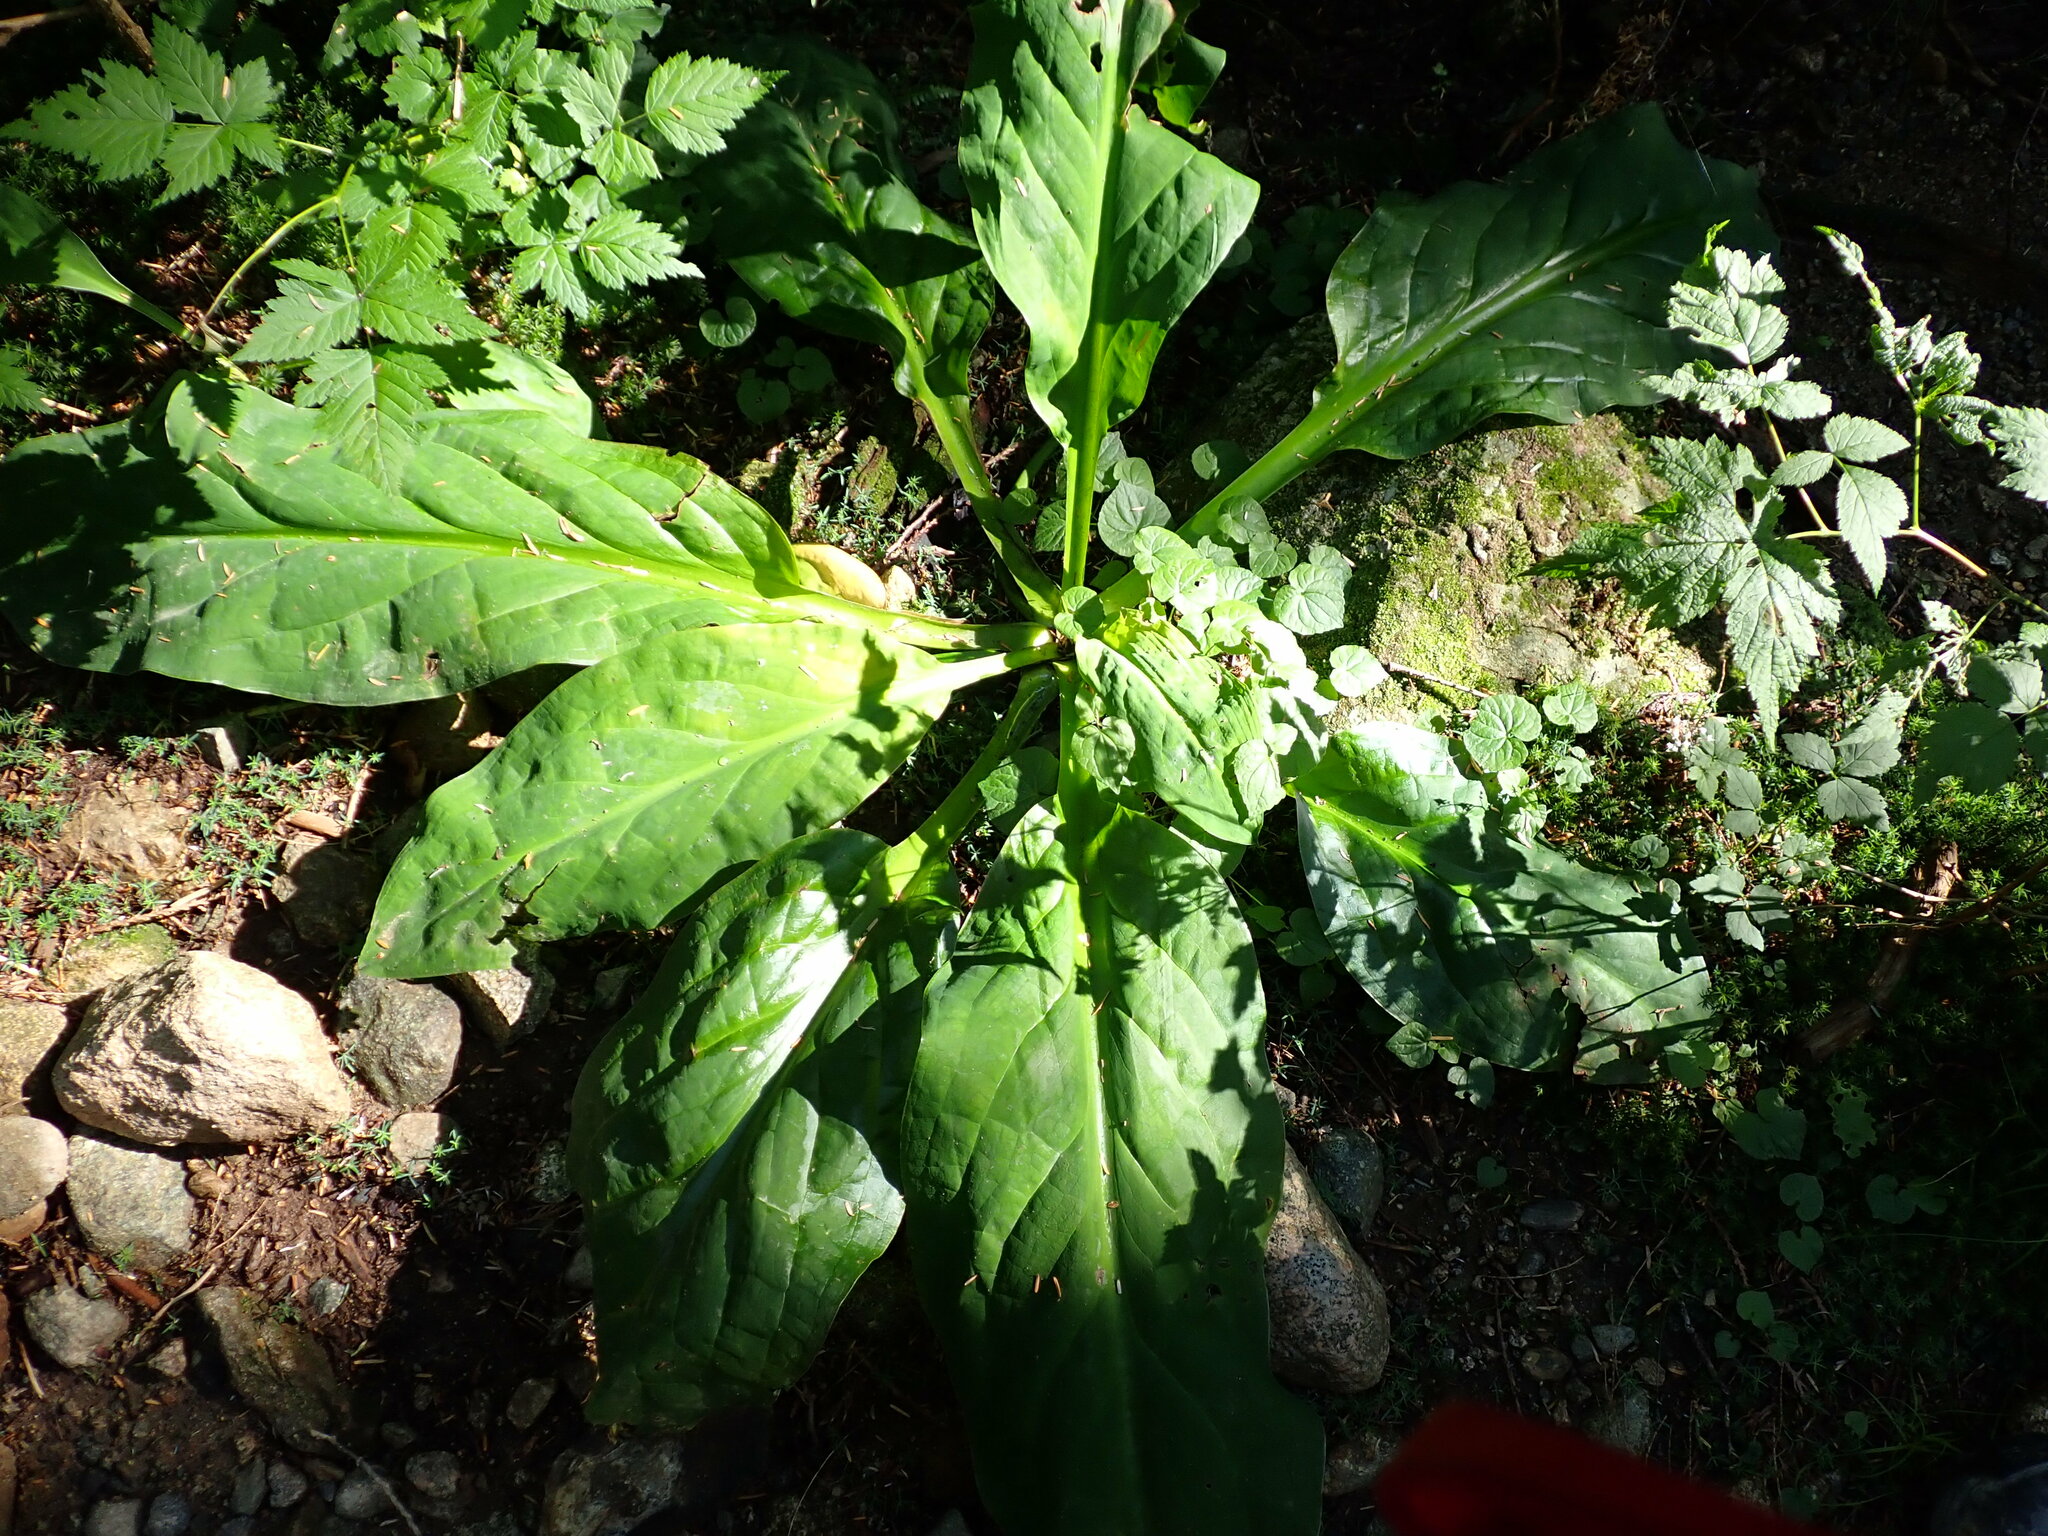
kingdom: Plantae
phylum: Tracheophyta
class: Liliopsida
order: Alismatales
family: Araceae
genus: Lysichiton
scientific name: Lysichiton americanus
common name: American skunk cabbage
